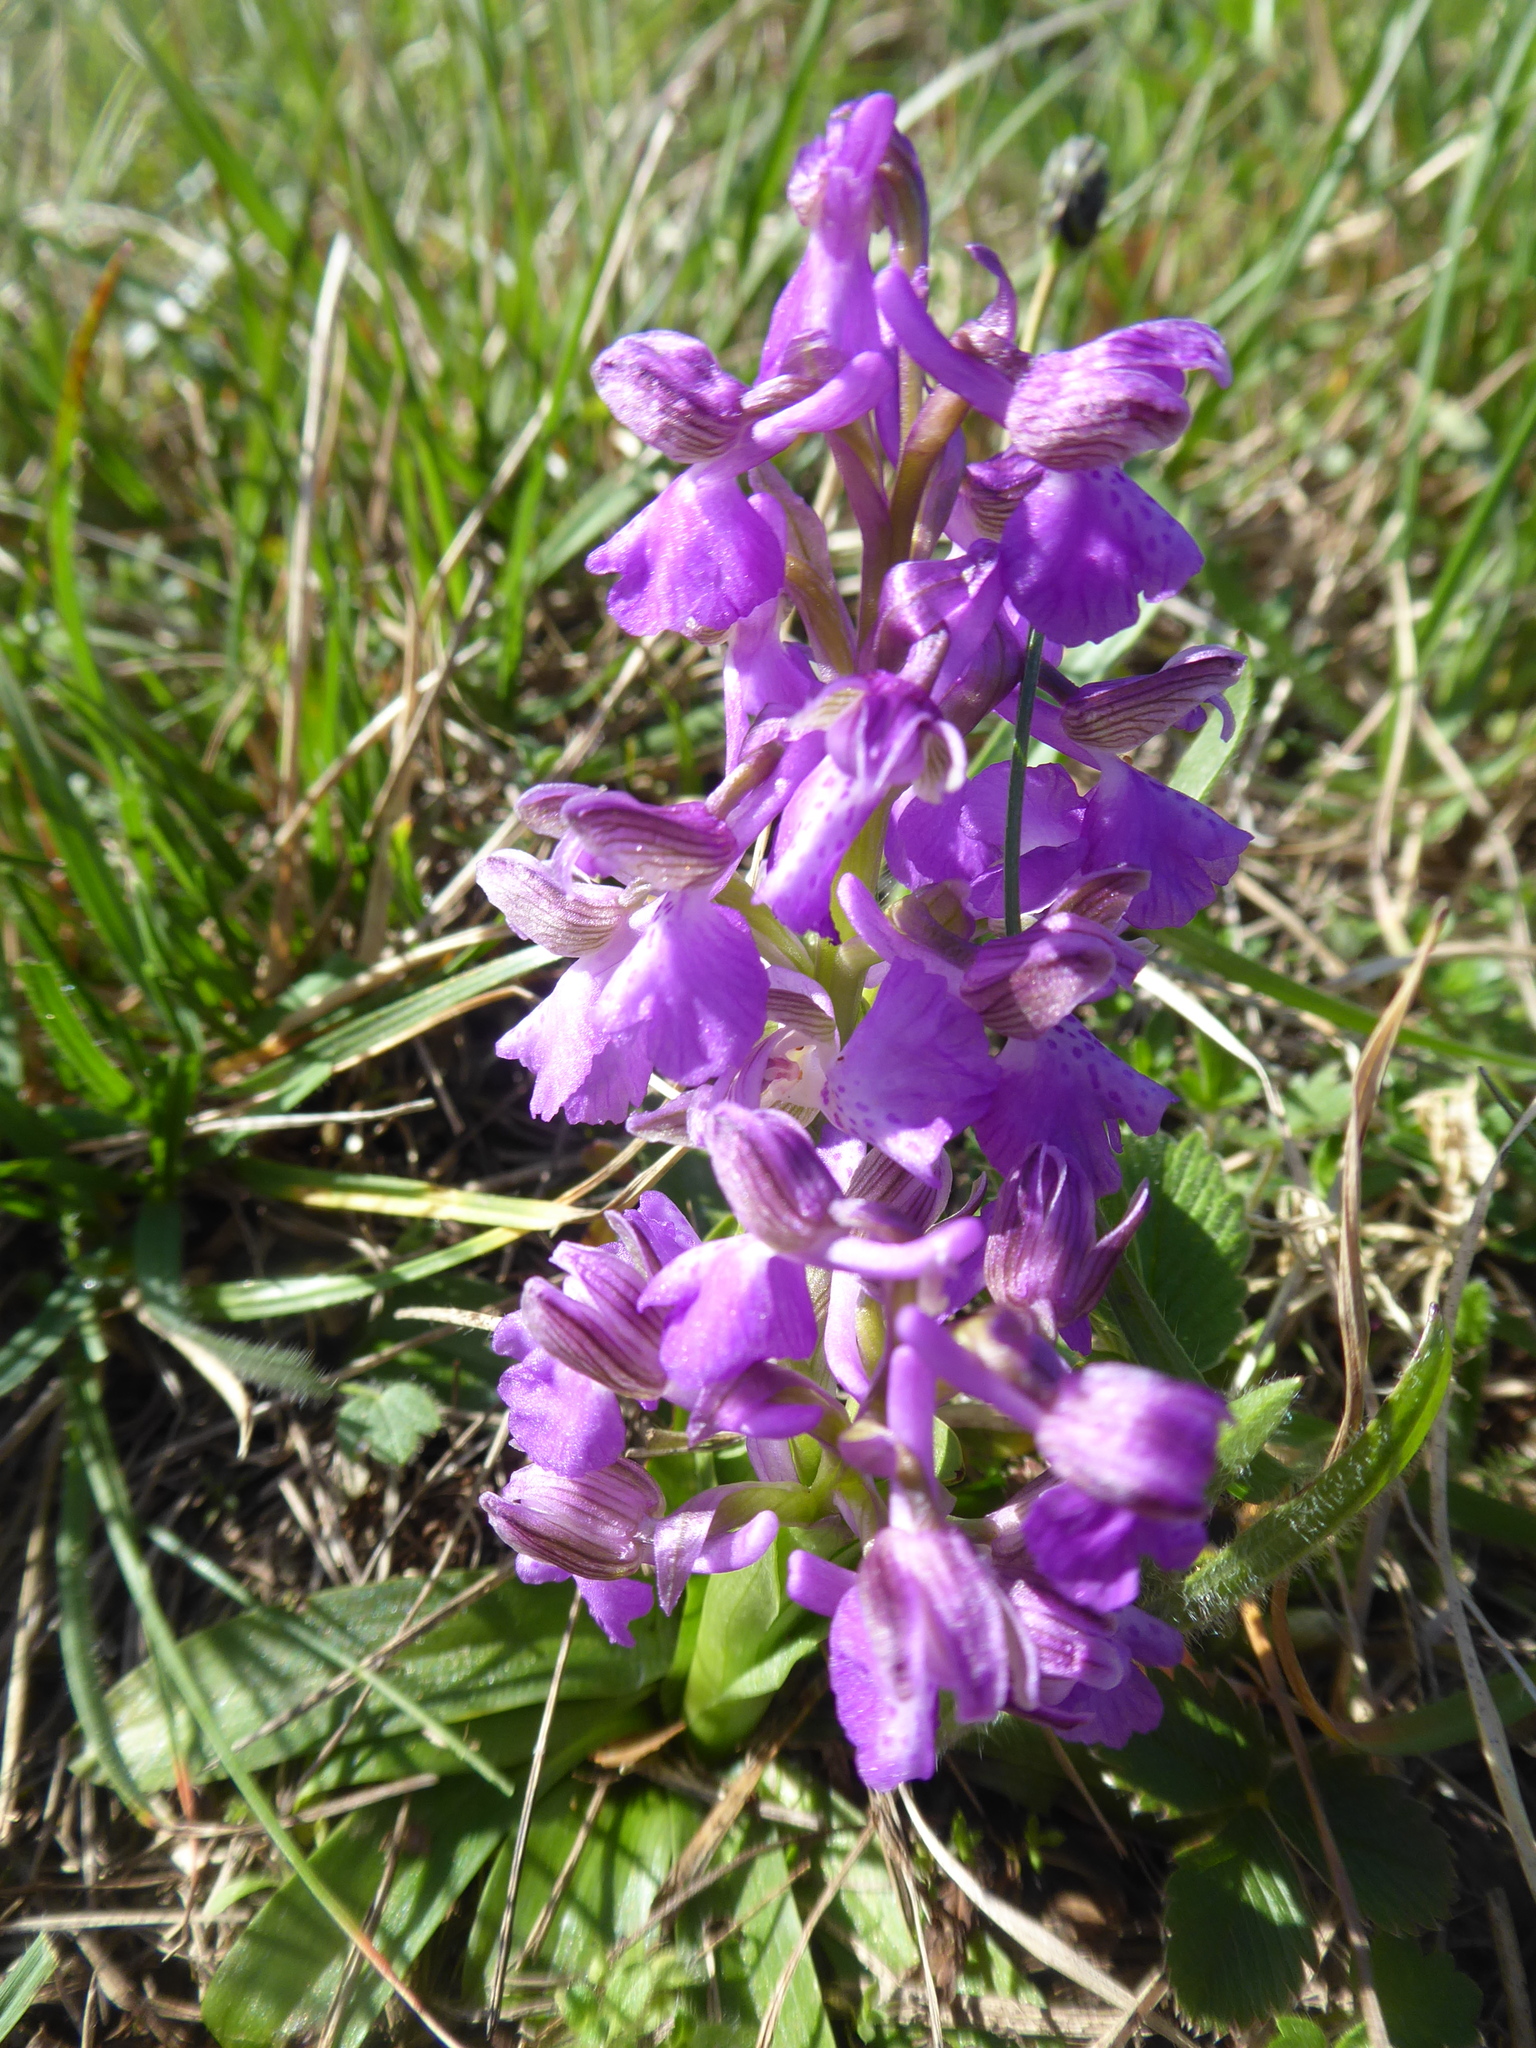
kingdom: Plantae
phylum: Tracheophyta
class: Liliopsida
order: Asparagales
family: Orchidaceae
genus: Anacamptis
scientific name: Anacamptis morio
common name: Green-winged orchid
